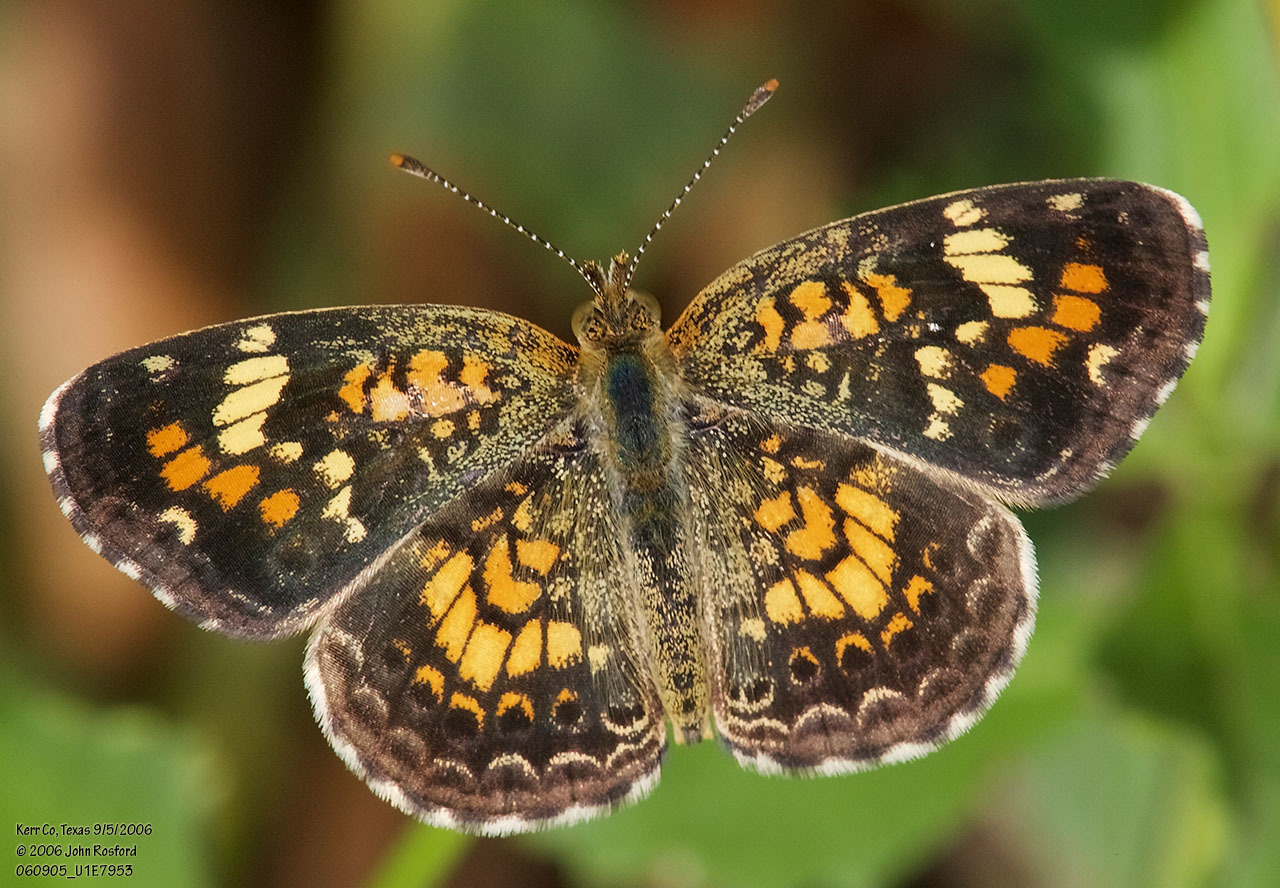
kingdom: Animalia
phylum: Arthropoda
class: Insecta
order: Lepidoptera
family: Nymphalidae
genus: Phyciodes
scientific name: Phyciodes phaon
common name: Phaon crescent
